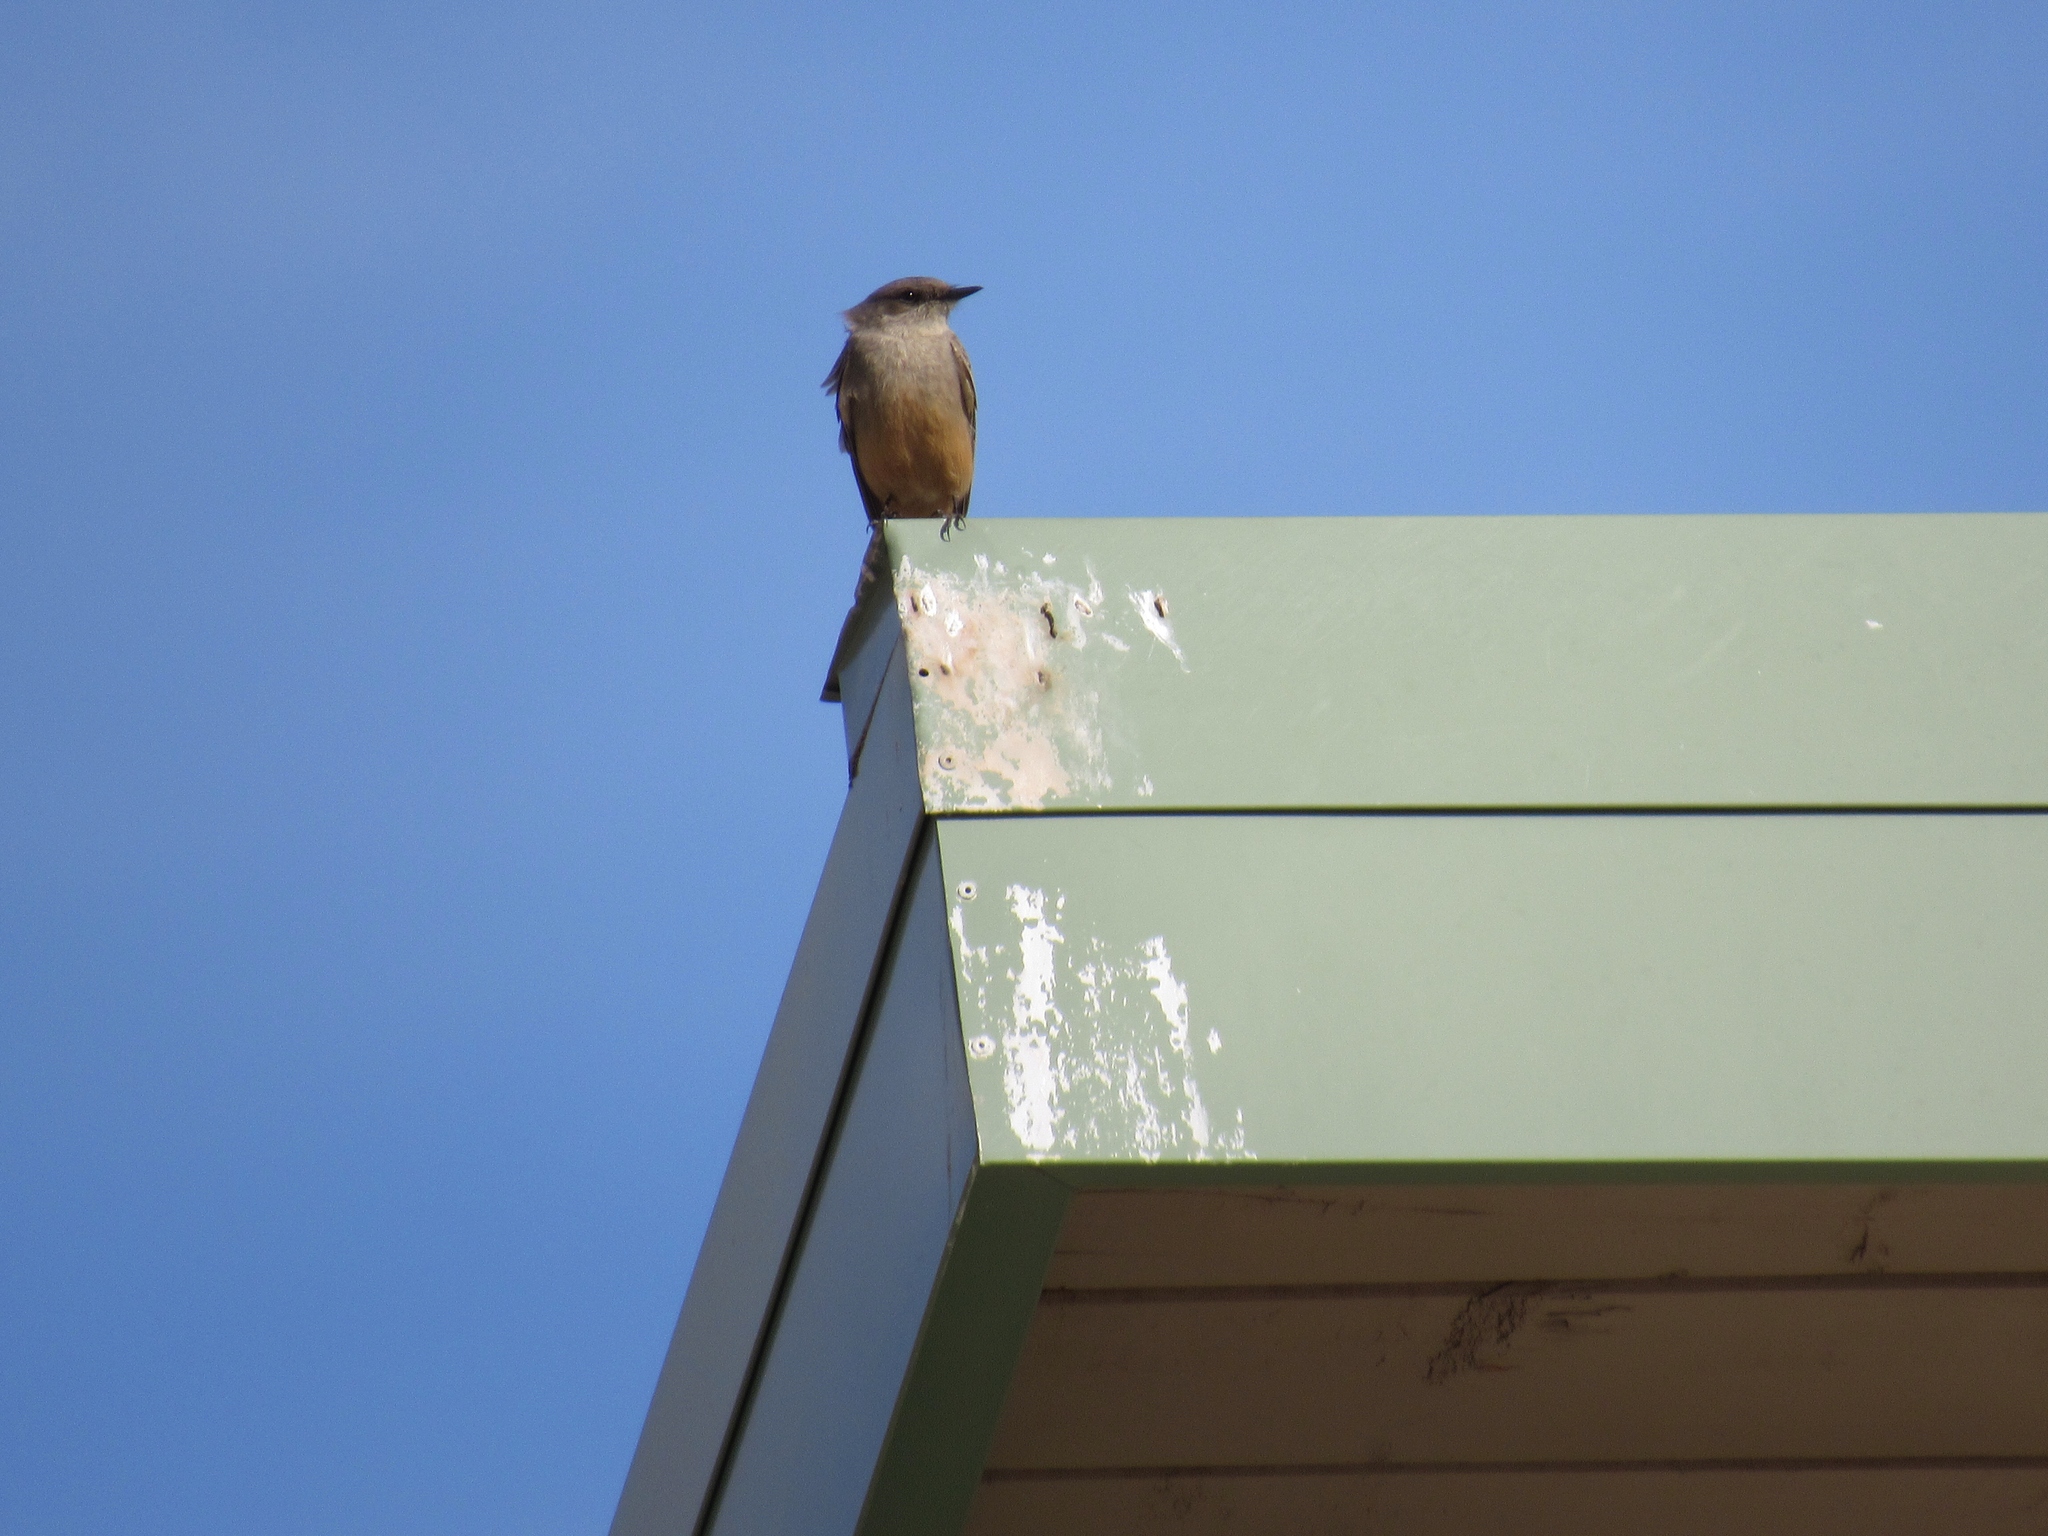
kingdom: Animalia
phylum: Chordata
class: Aves
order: Passeriformes
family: Tyrannidae
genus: Sayornis
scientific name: Sayornis saya
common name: Say's phoebe
